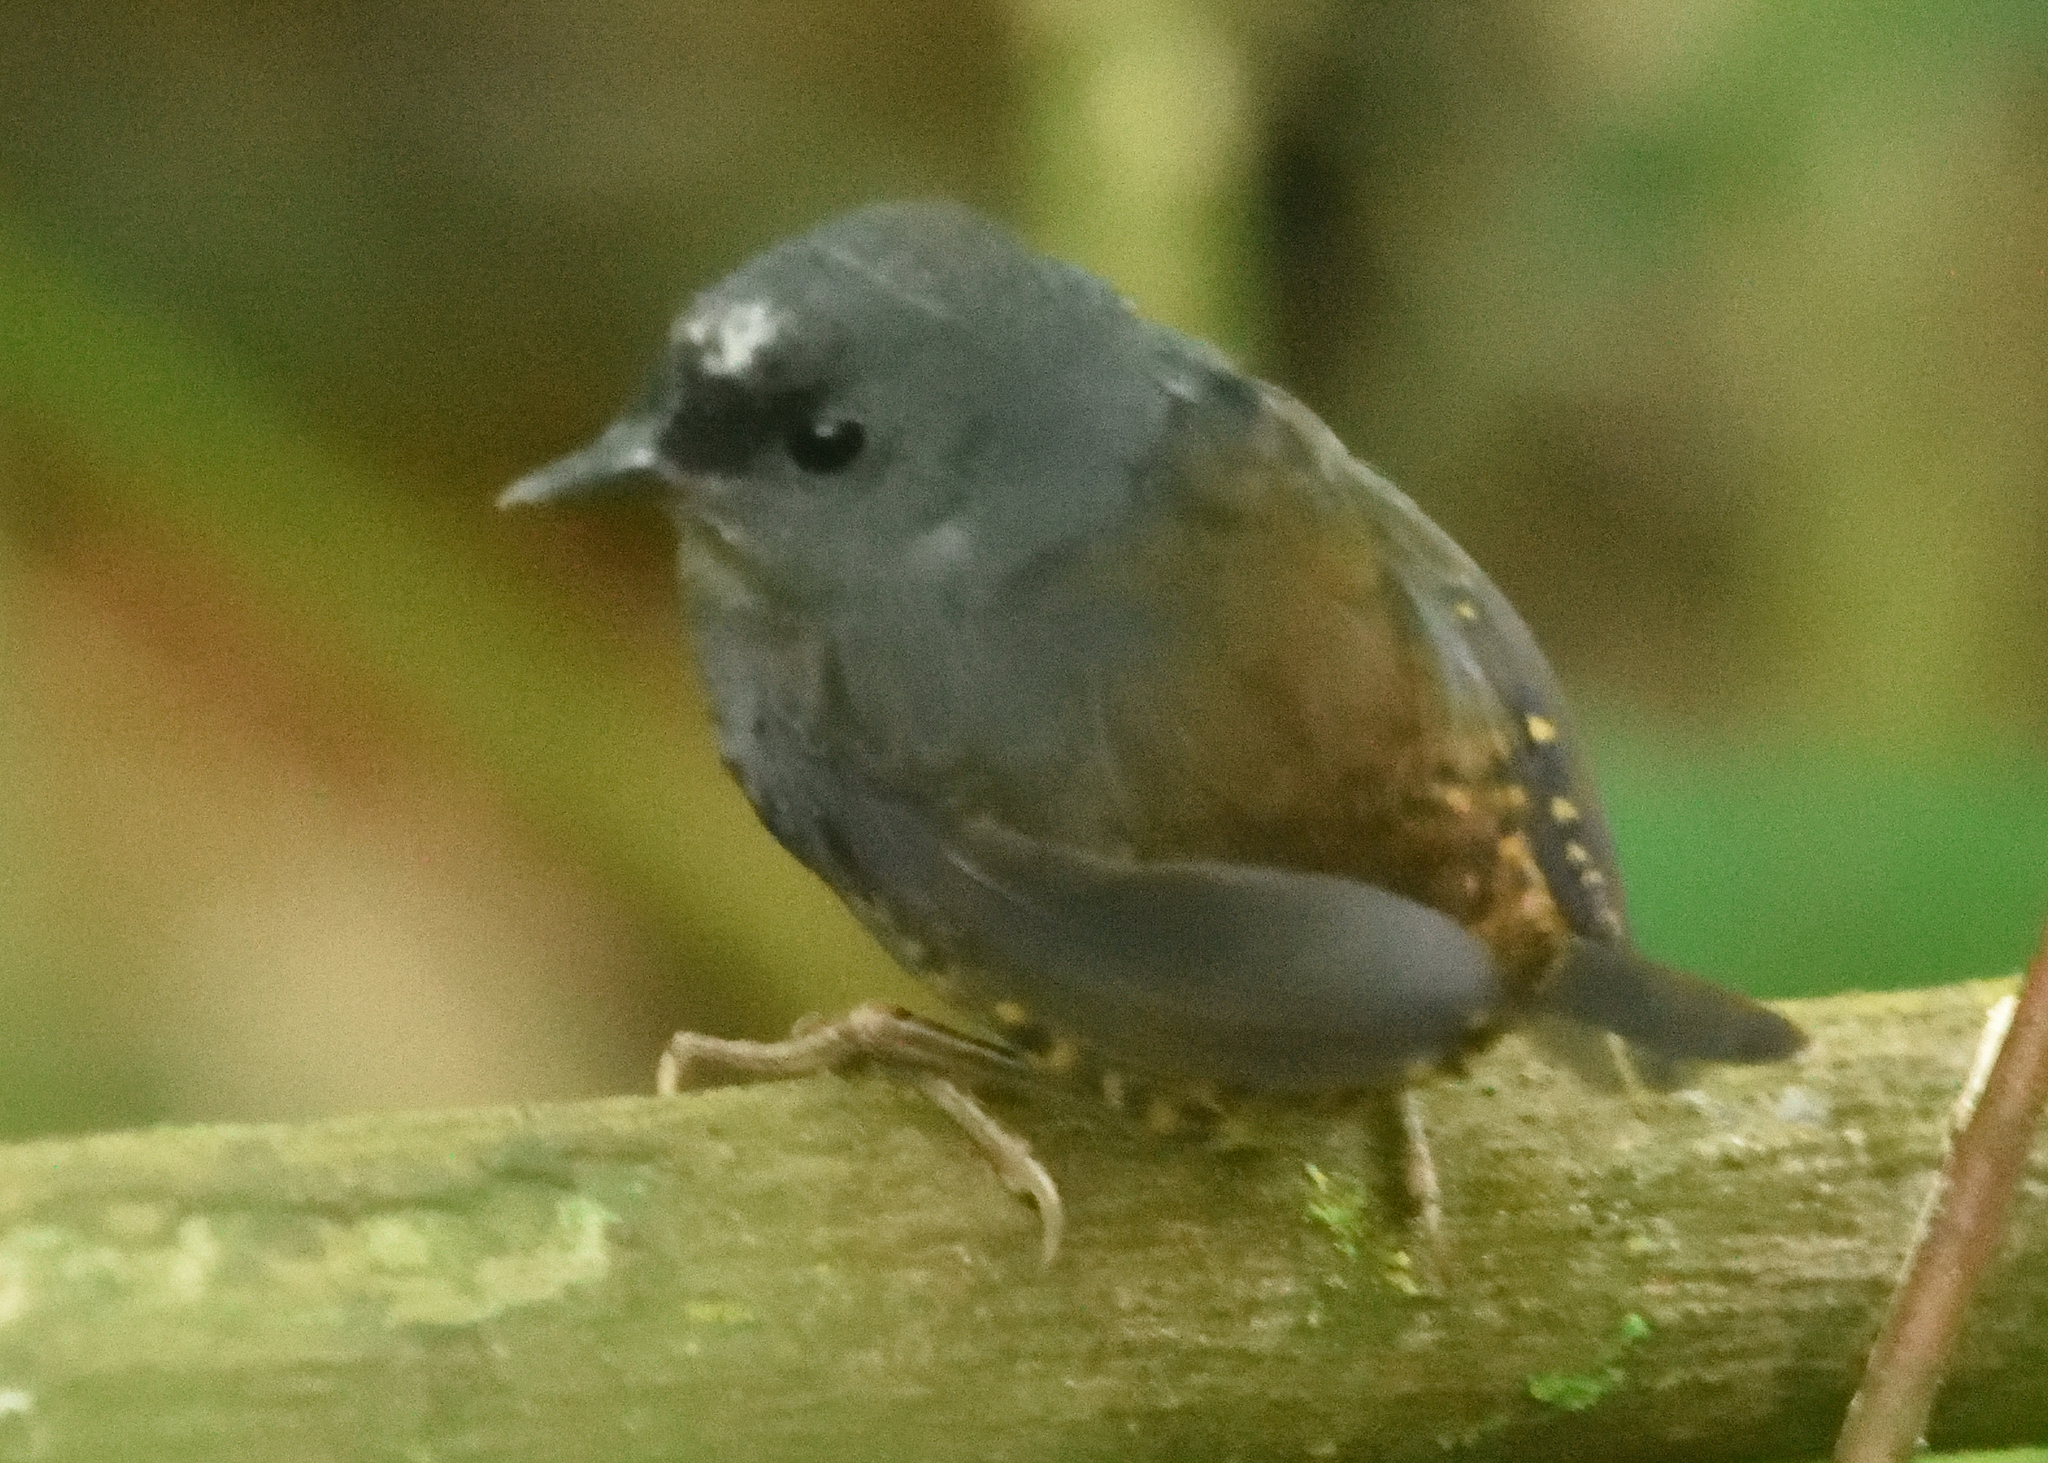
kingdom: Animalia
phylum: Chordata
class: Aves
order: Passeriformes
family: Rhinocryptidae
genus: Scytalopus
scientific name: Scytalopus sanctaemartae
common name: Santa marta tapaculo
